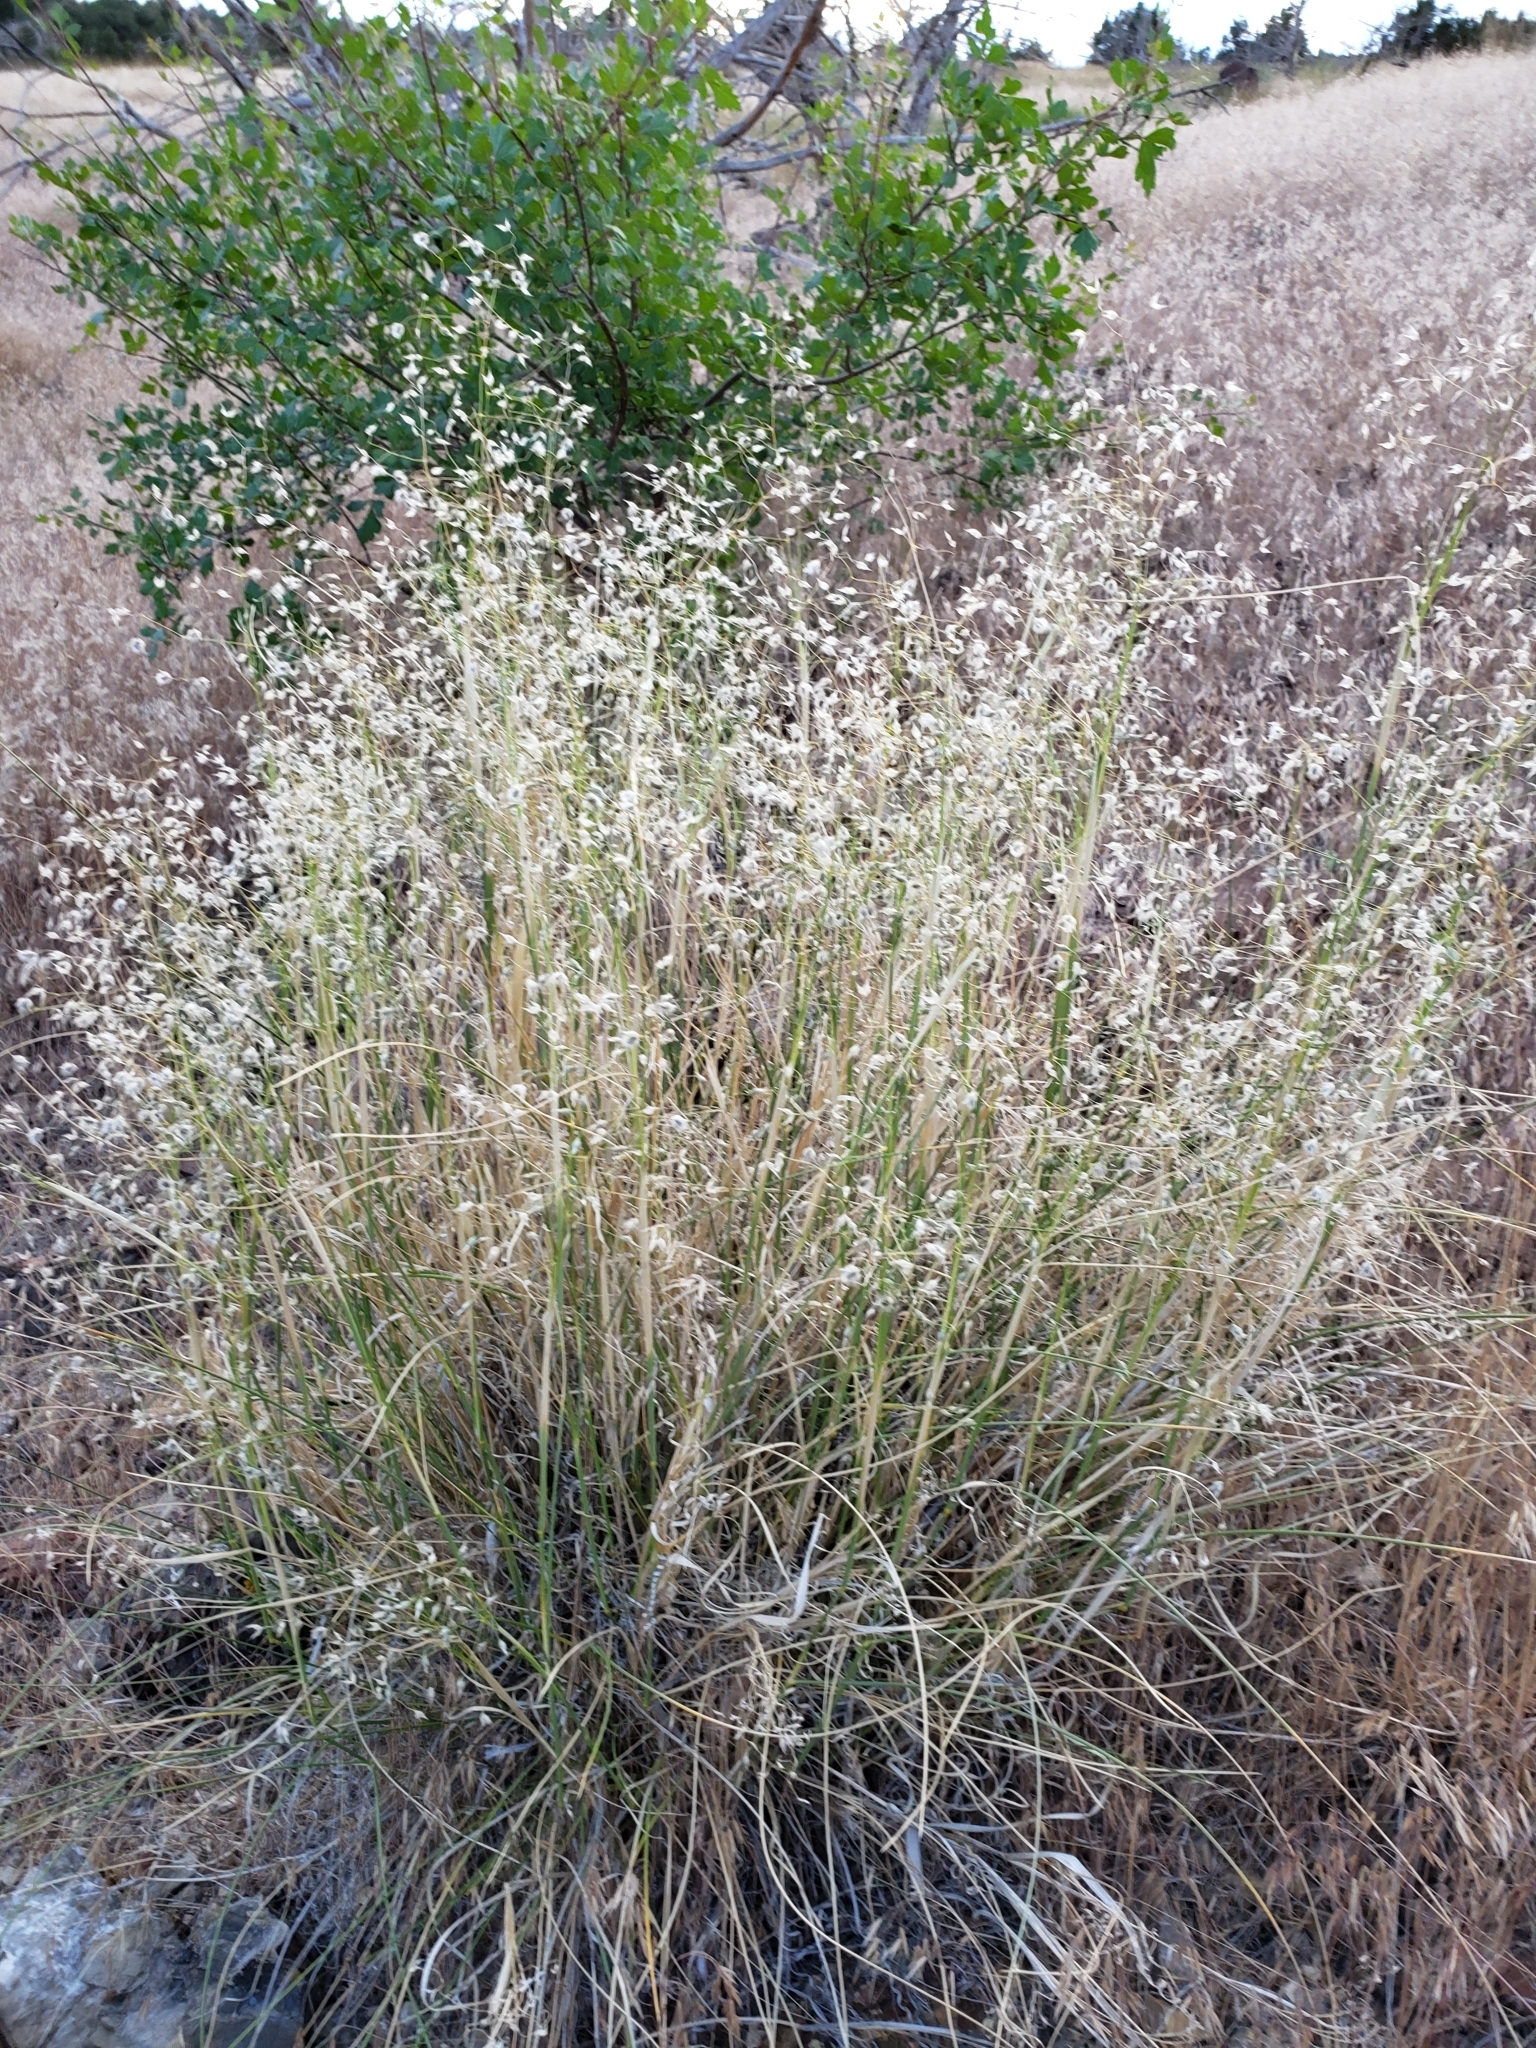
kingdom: Plantae
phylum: Tracheophyta
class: Liliopsida
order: Poales
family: Poaceae
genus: Eriocoma
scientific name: Eriocoma hymenoides
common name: Indian mountain ricegrass
